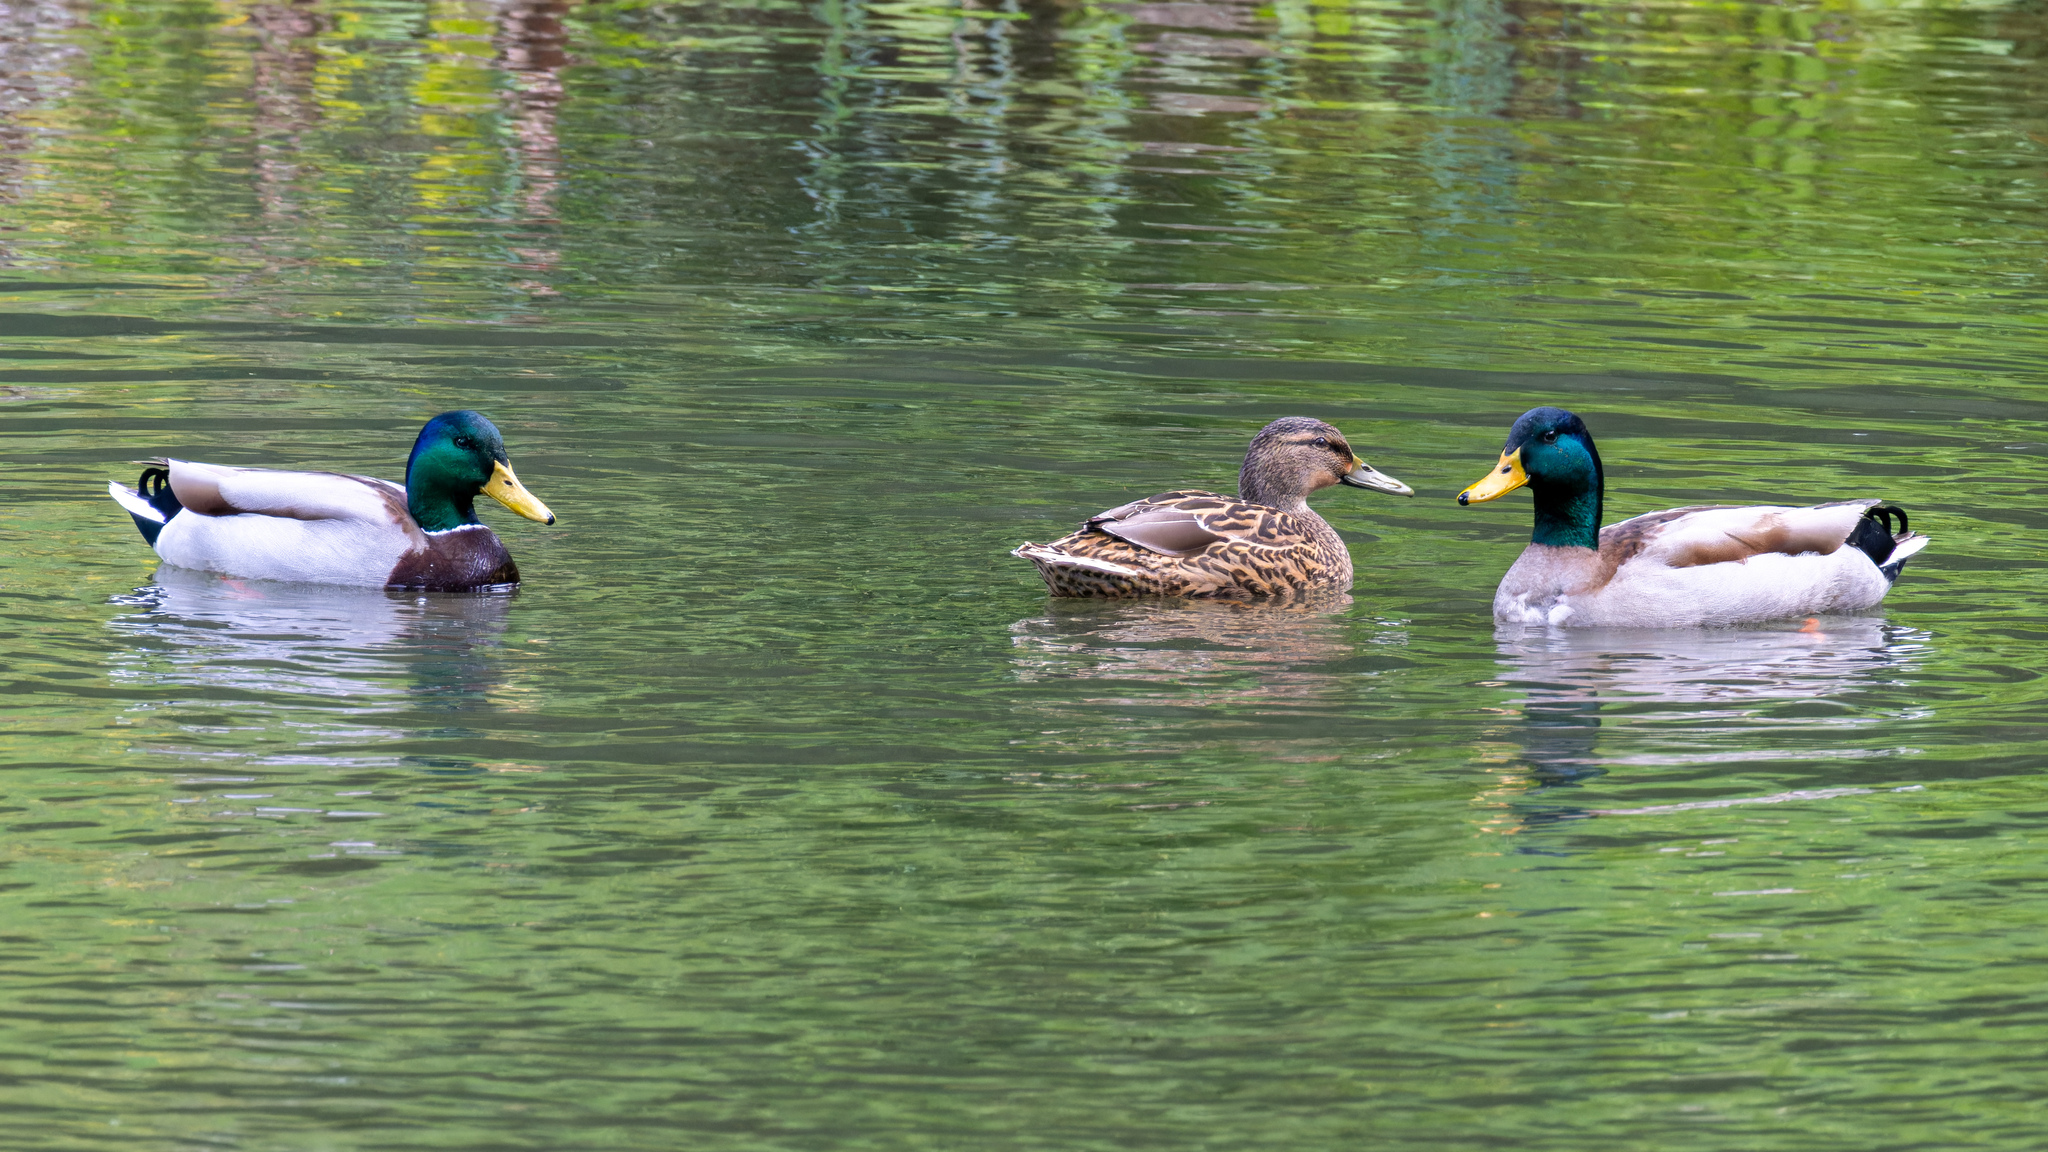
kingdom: Animalia
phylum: Chordata
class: Aves
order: Anseriformes
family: Anatidae
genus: Anas
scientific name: Anas platyrhynchos
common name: Mallard
